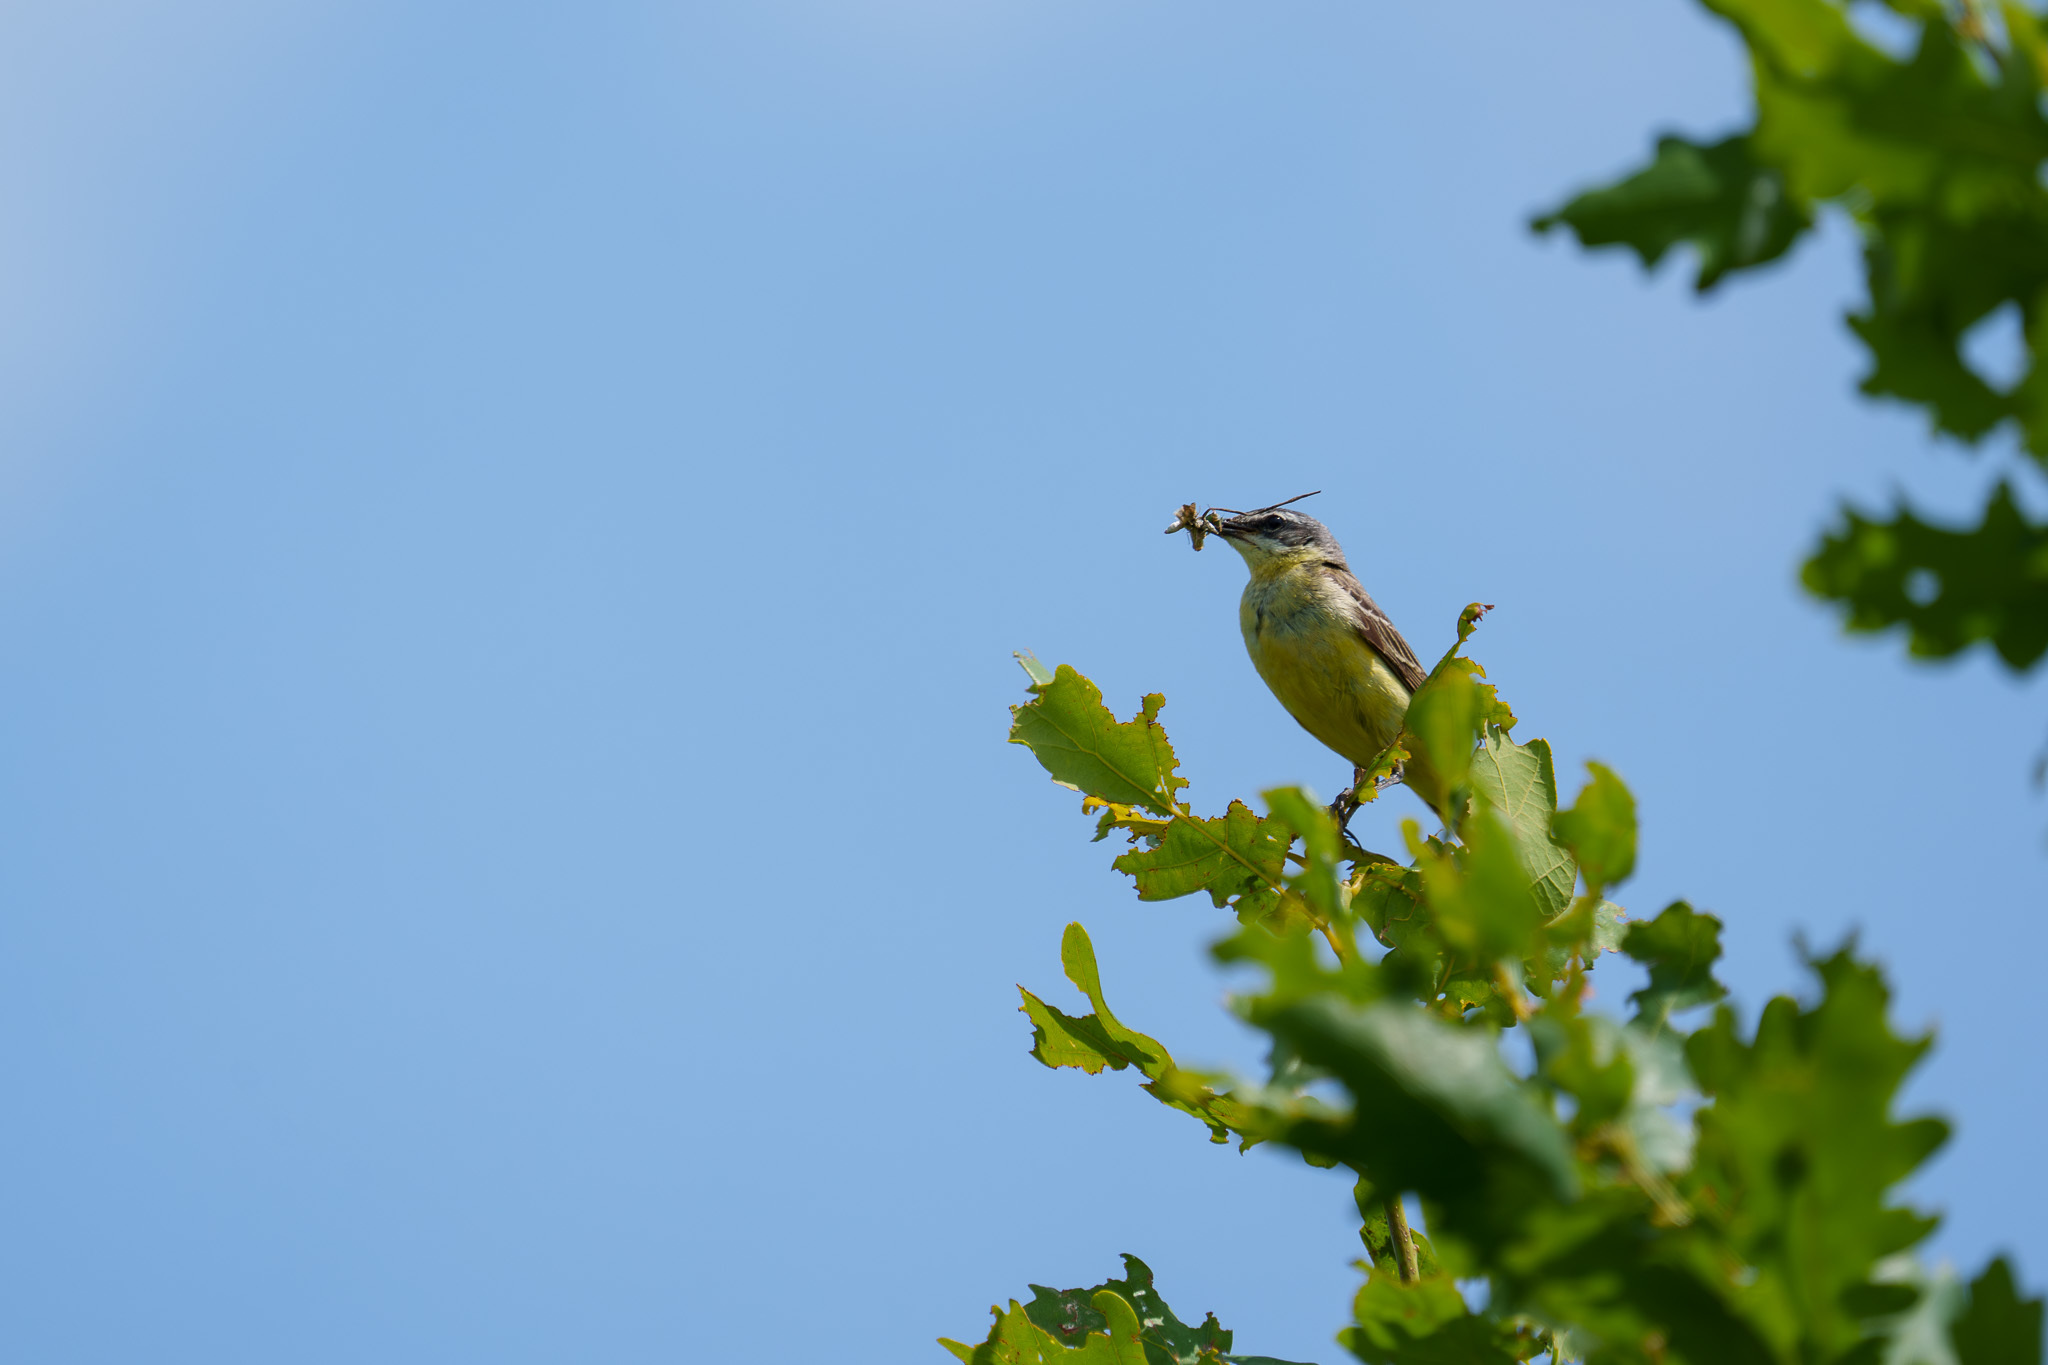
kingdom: Animalia
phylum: Chordata
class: Aves
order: Passeriformes
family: Motacillidae
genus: Motacilla
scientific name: Motacilla flava
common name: Western yellow wagtail
